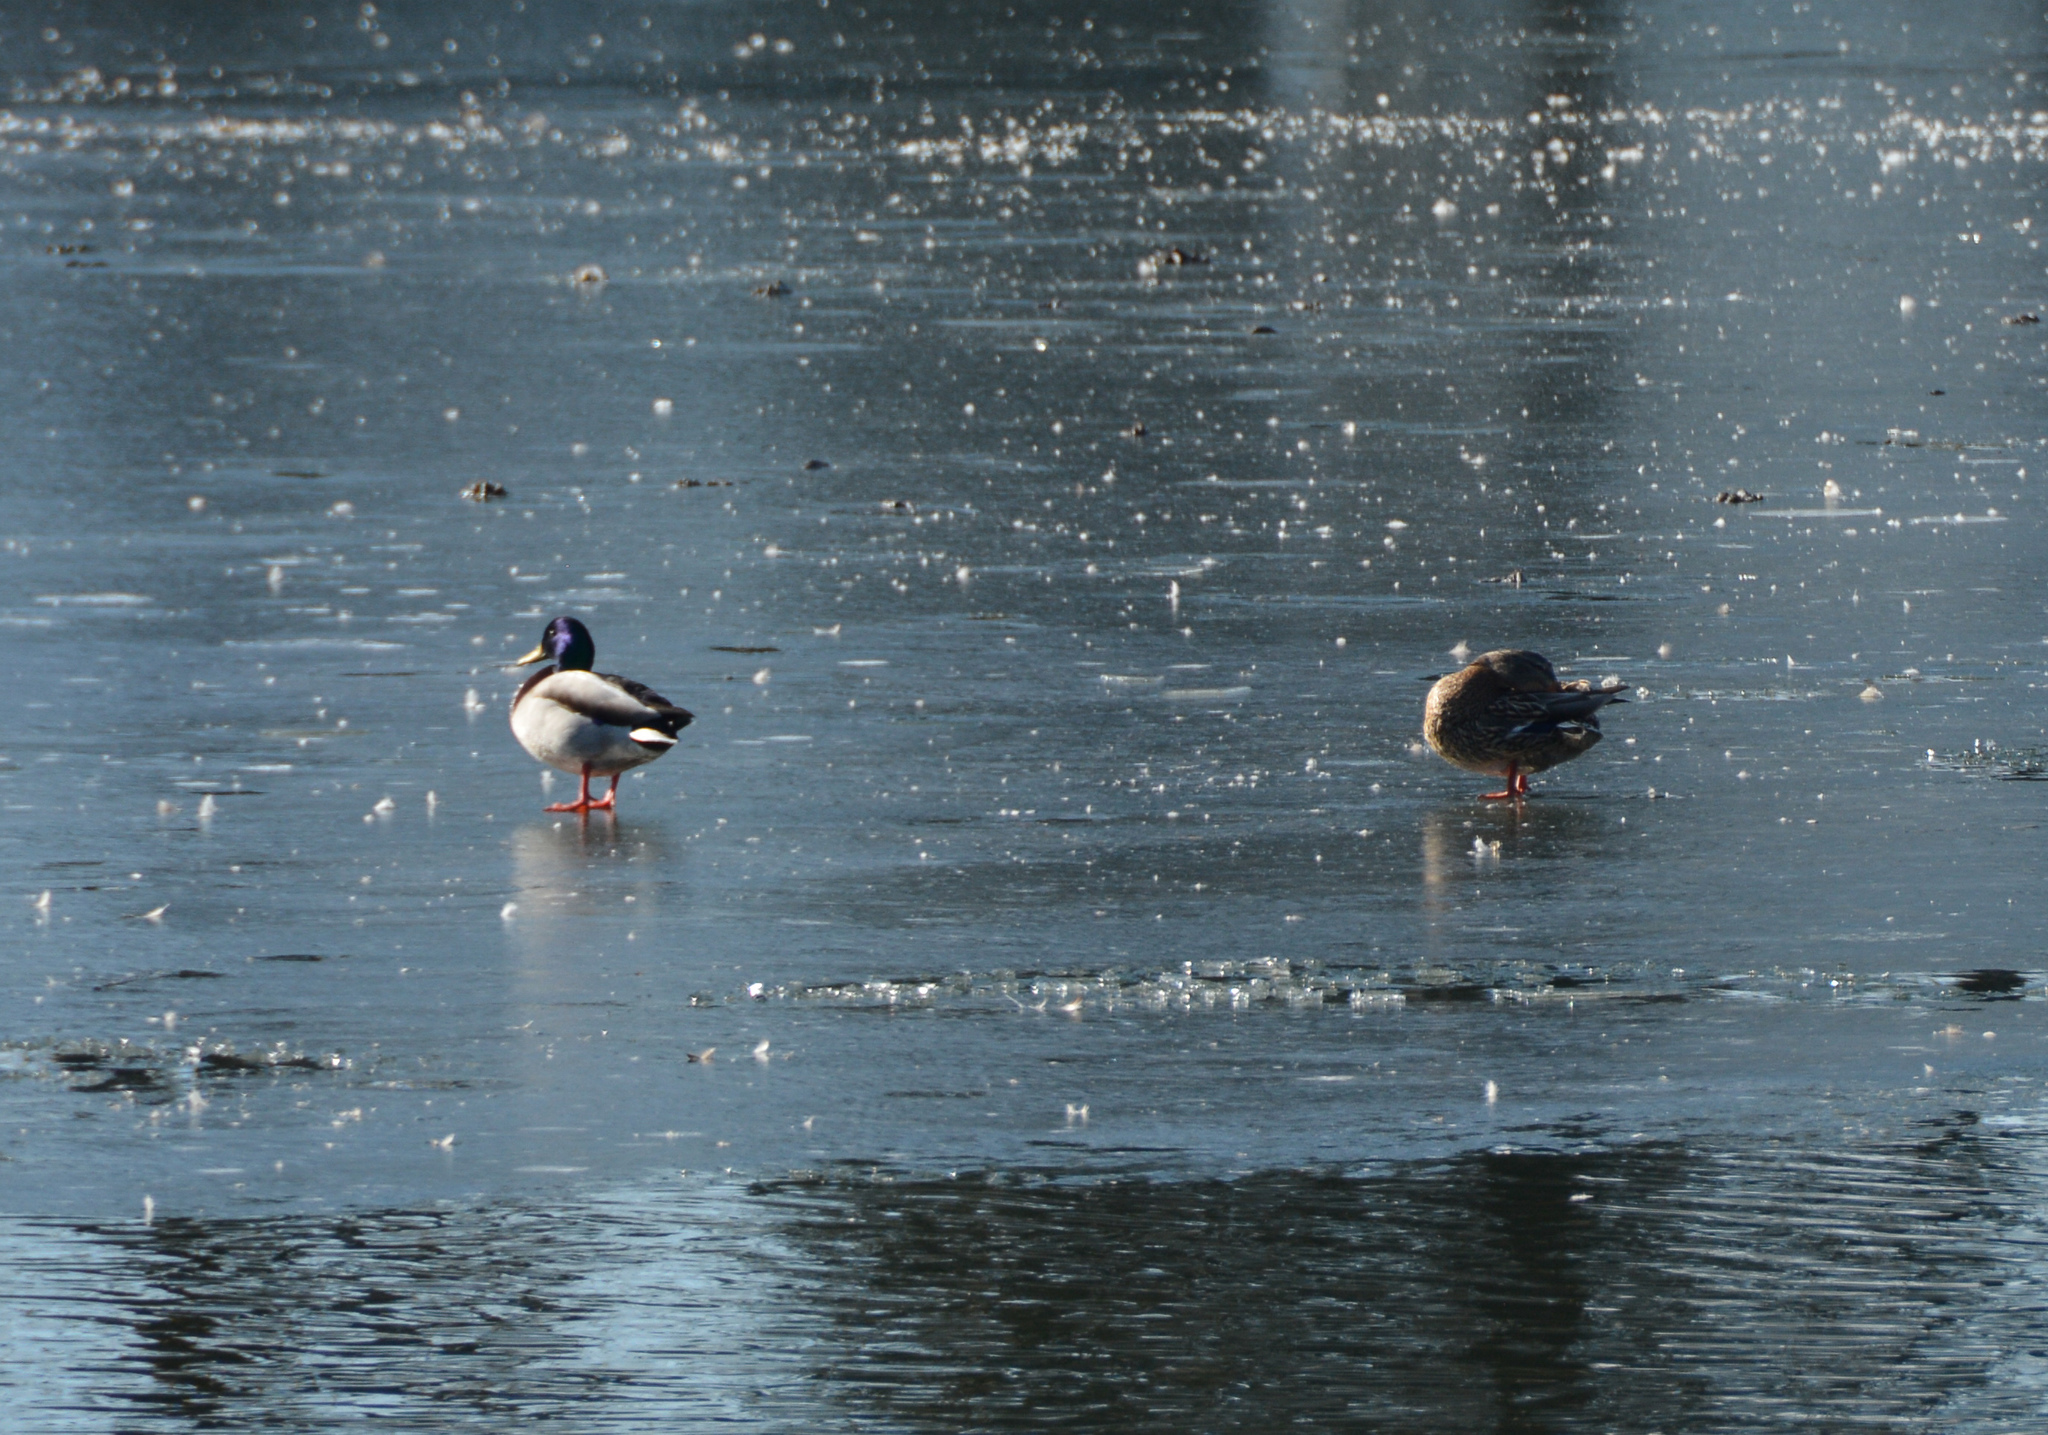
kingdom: Animalia
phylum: Chordata
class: Aves
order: Anseriformes
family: Anatidae
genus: Anas
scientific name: Anas platyrhynchos
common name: Mallard
